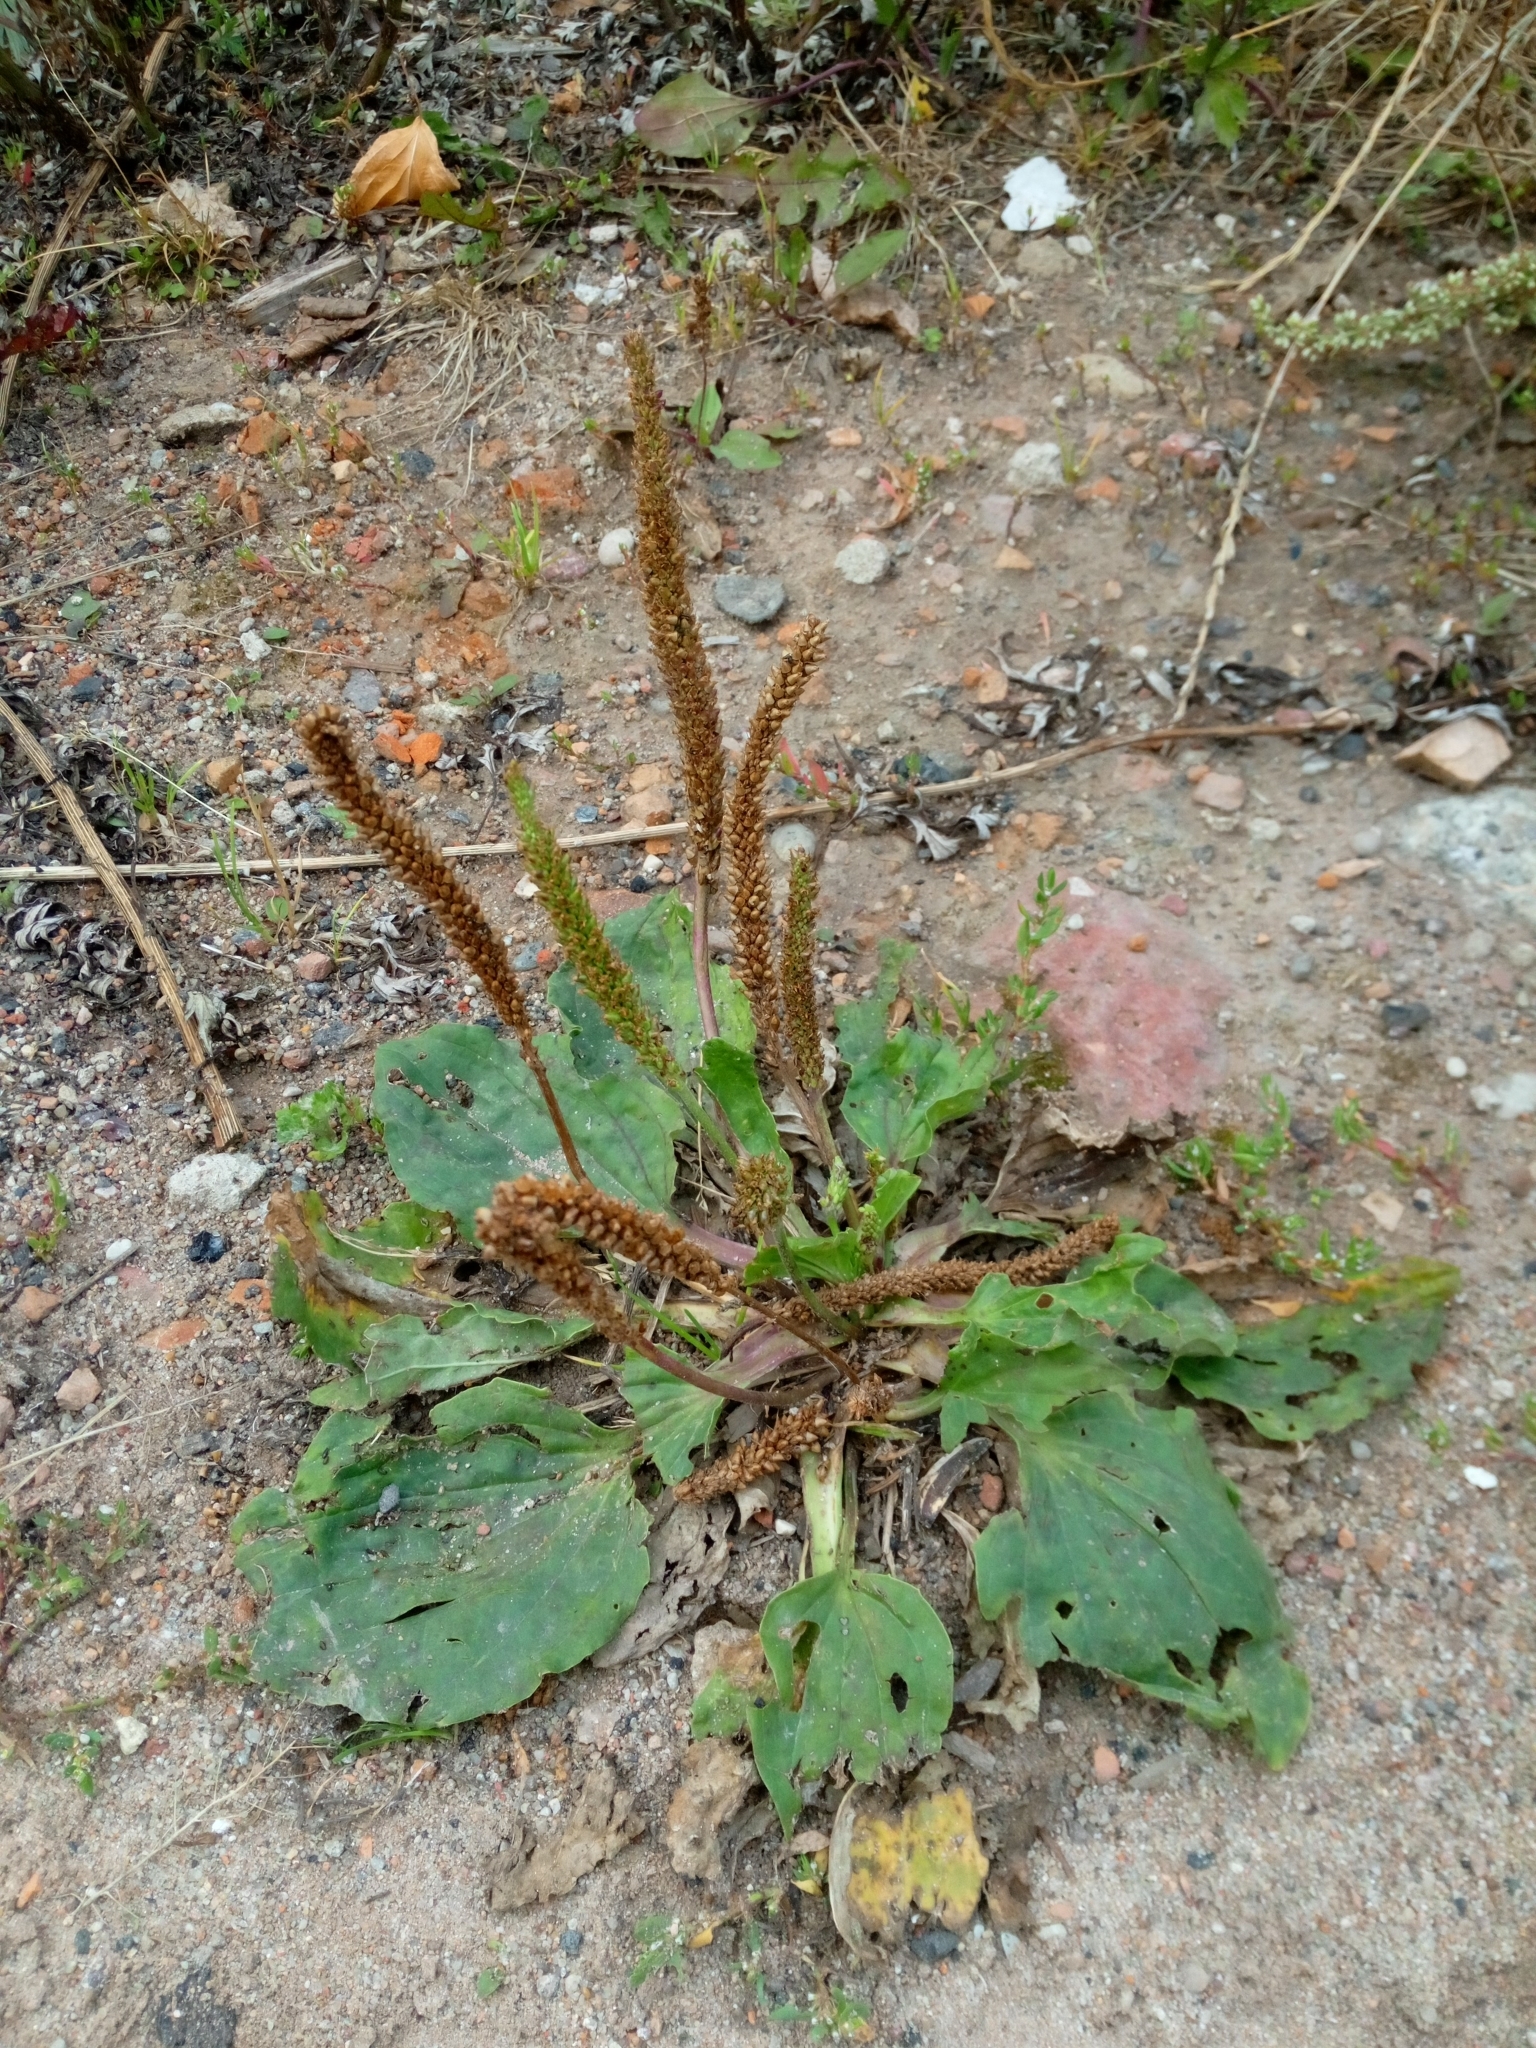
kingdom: Plantae
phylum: Tracheophyta
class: Magnoliopsida
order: Lamiales
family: Plantaginaceae
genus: Plantago
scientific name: Plantago major
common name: Common plantain
